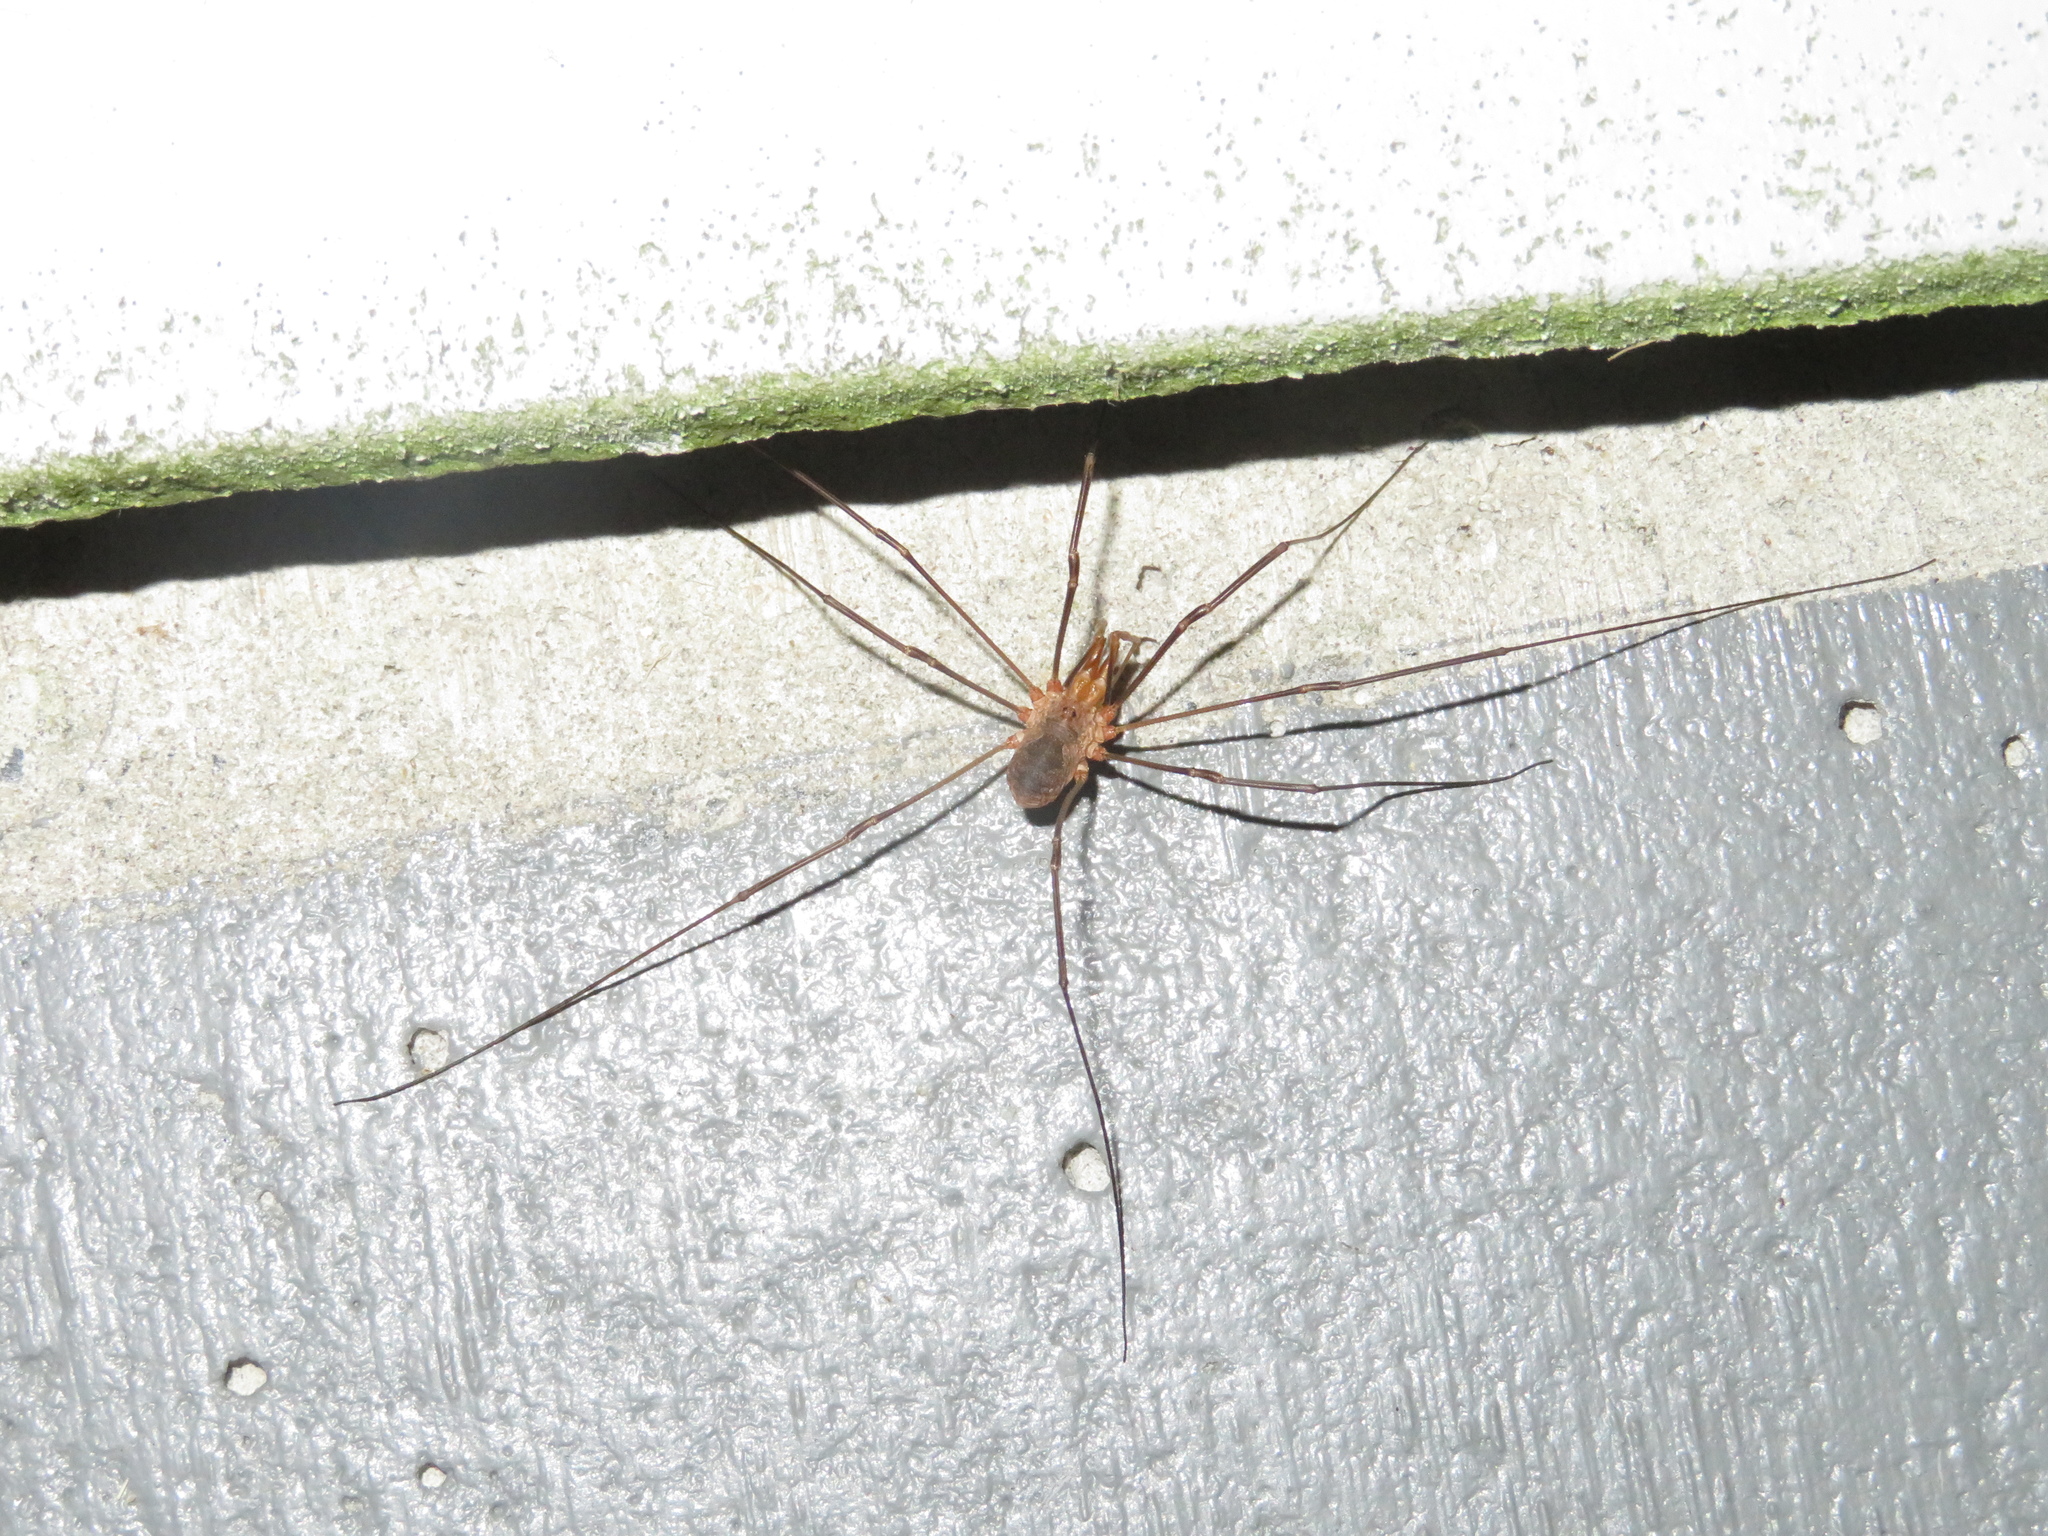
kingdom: Animalia
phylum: Arthropoda
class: Arachnida
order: Opiliones
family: Phalangiidae
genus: Phalangium
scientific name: Phalangium opilio
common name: Daddy longleg
